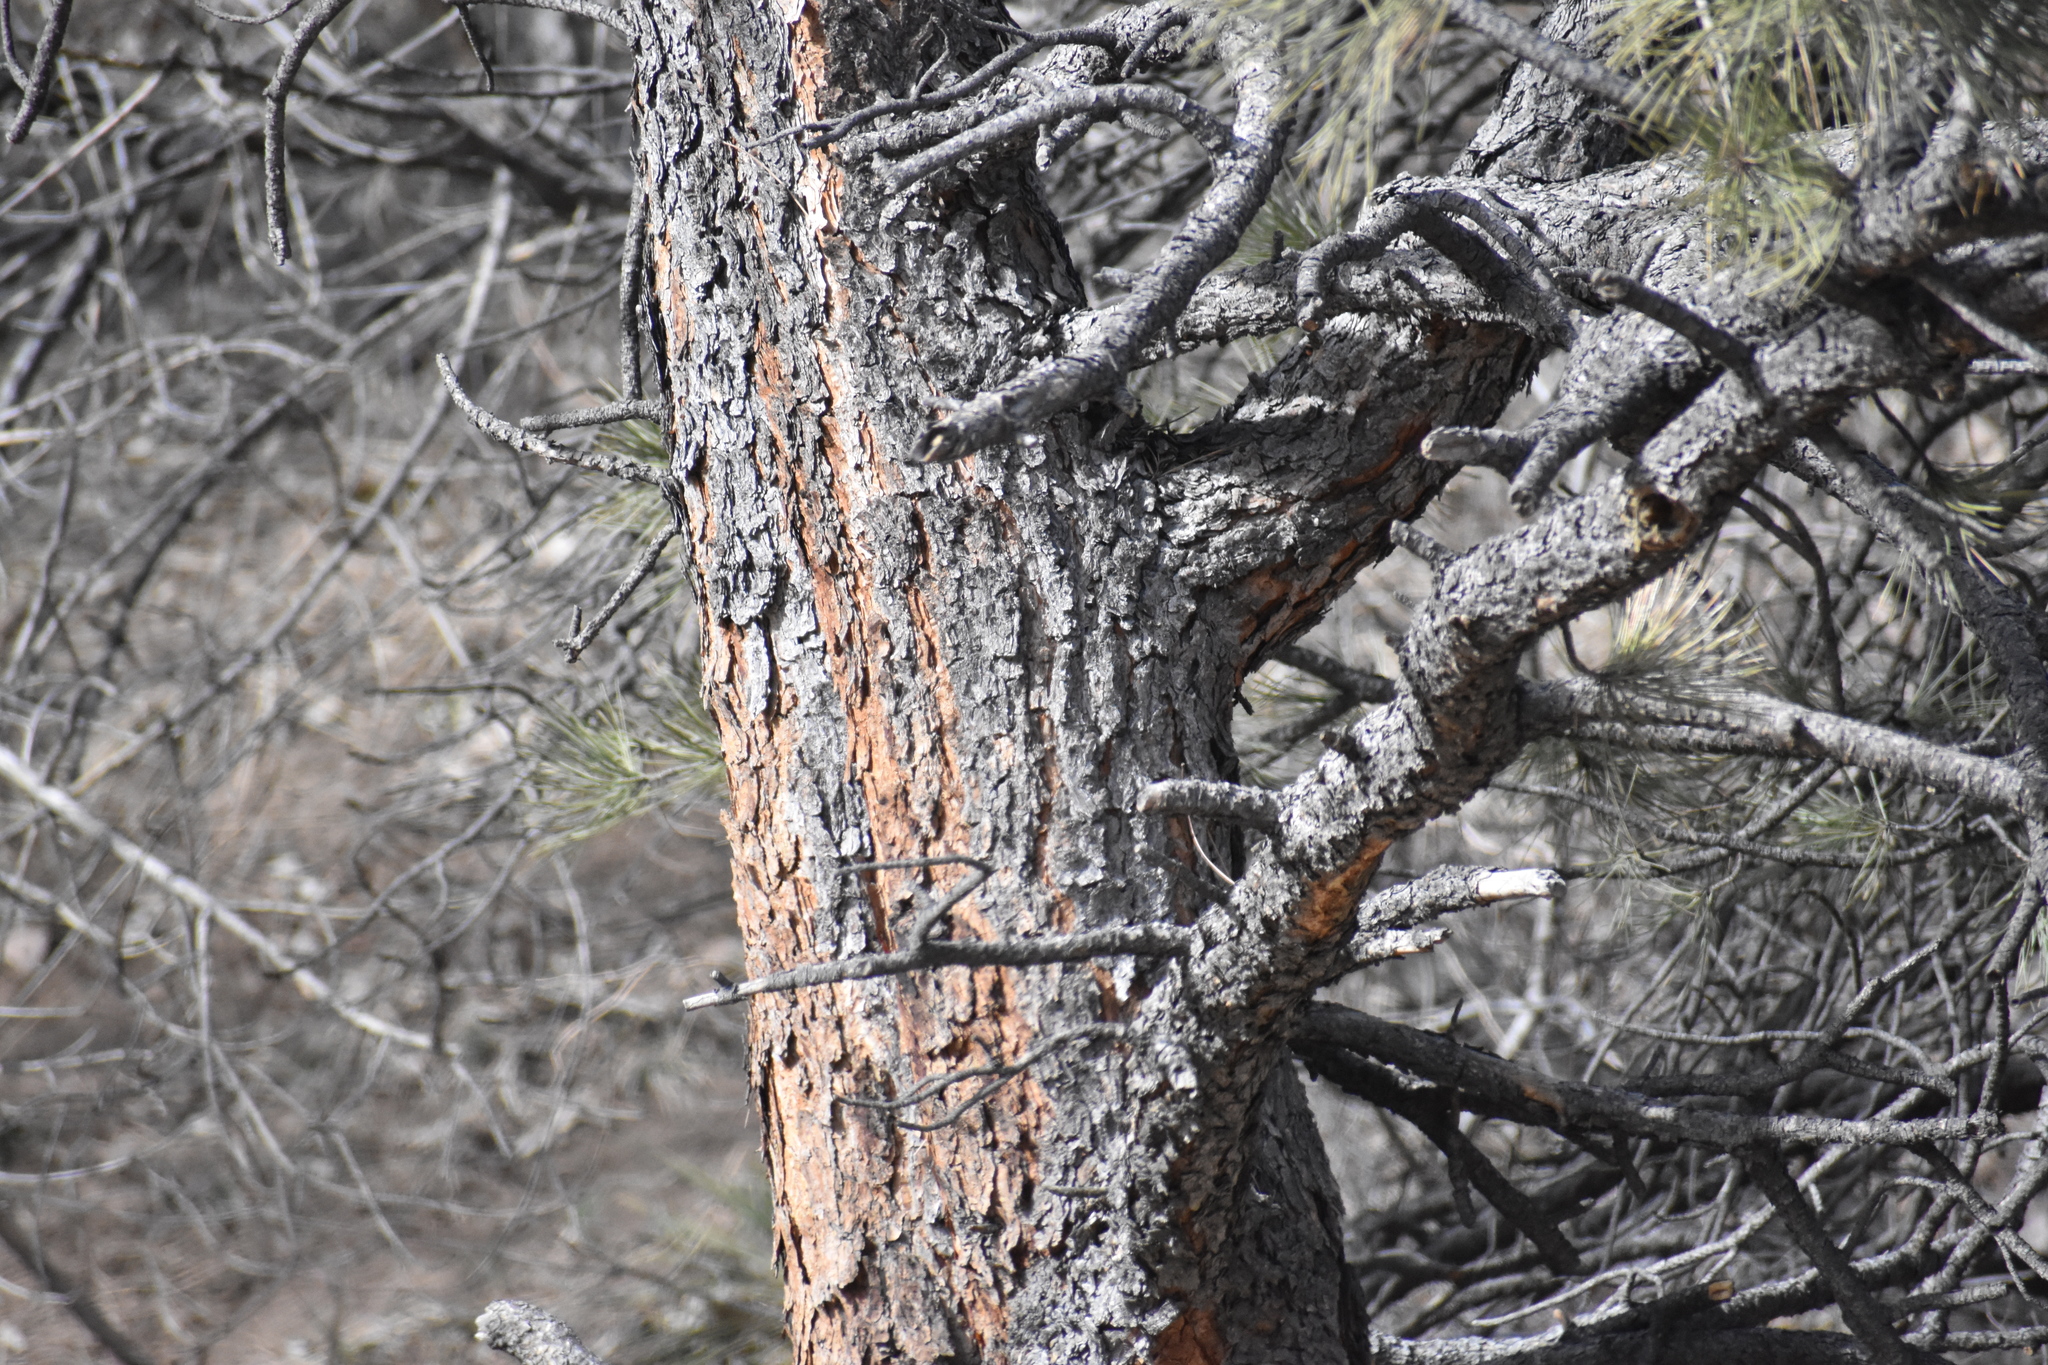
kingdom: Plantae
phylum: Tracheophyta
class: Pinopsida
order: Pinales
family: Pinaceae
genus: Pinus
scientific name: Pinus ponderosa
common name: Western yellow-pine
